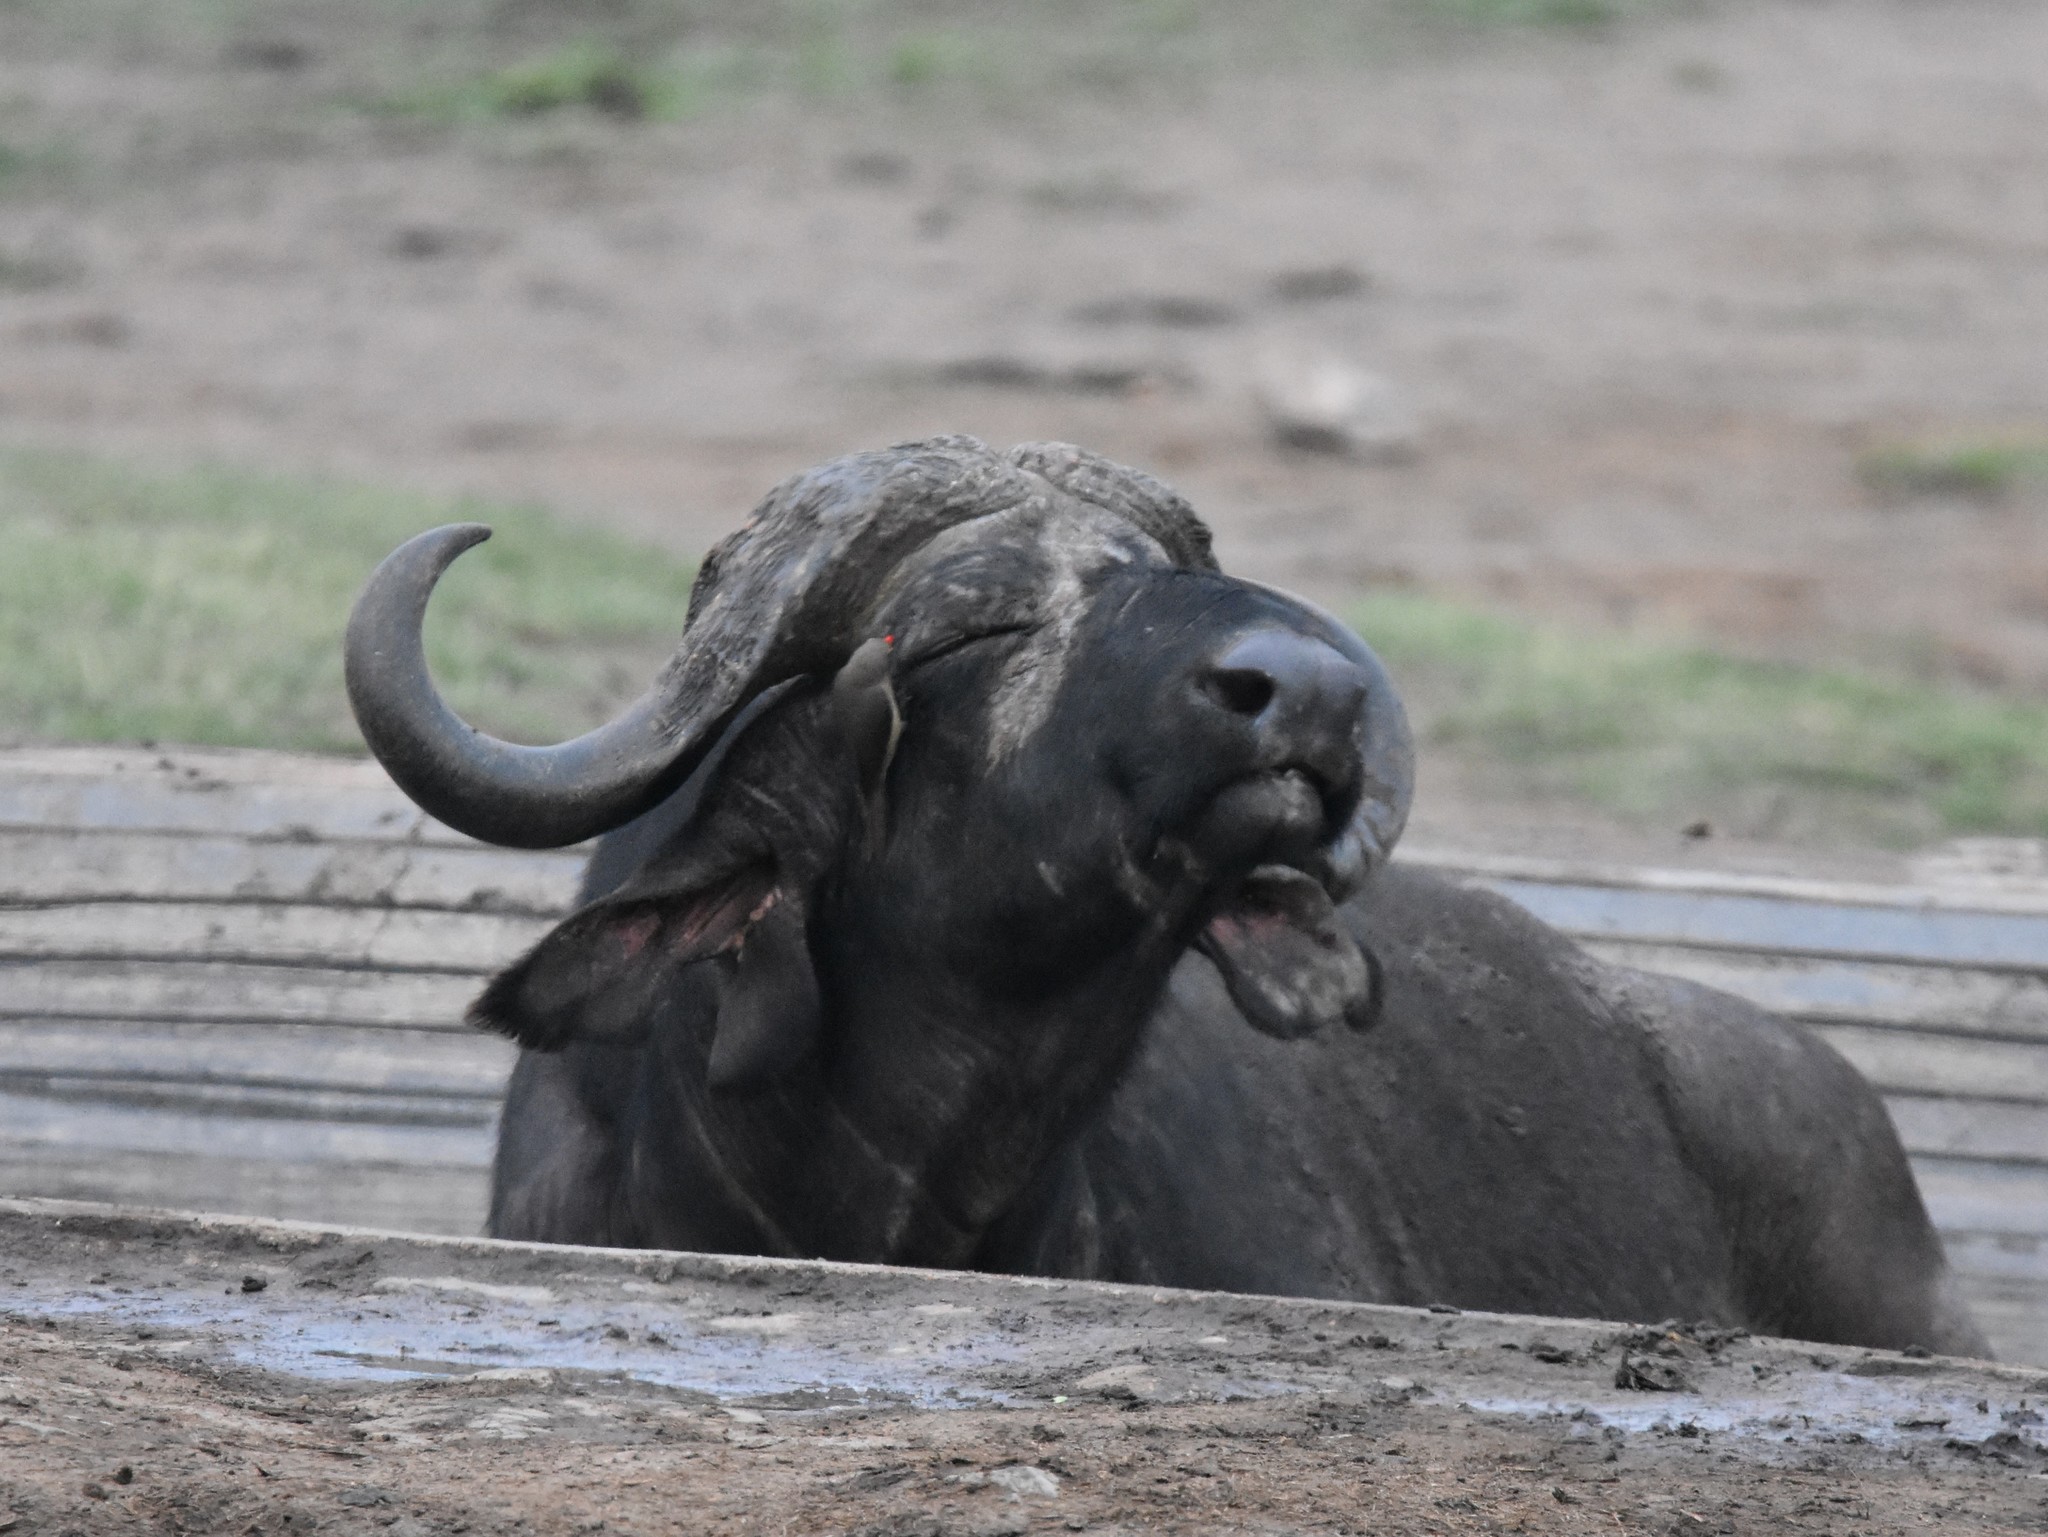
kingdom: Animalia
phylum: Chordata
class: Mammalia
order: Artiodactyla
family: Bovidae
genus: Syncerus
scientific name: Syncerus caffer
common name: African buffalo
